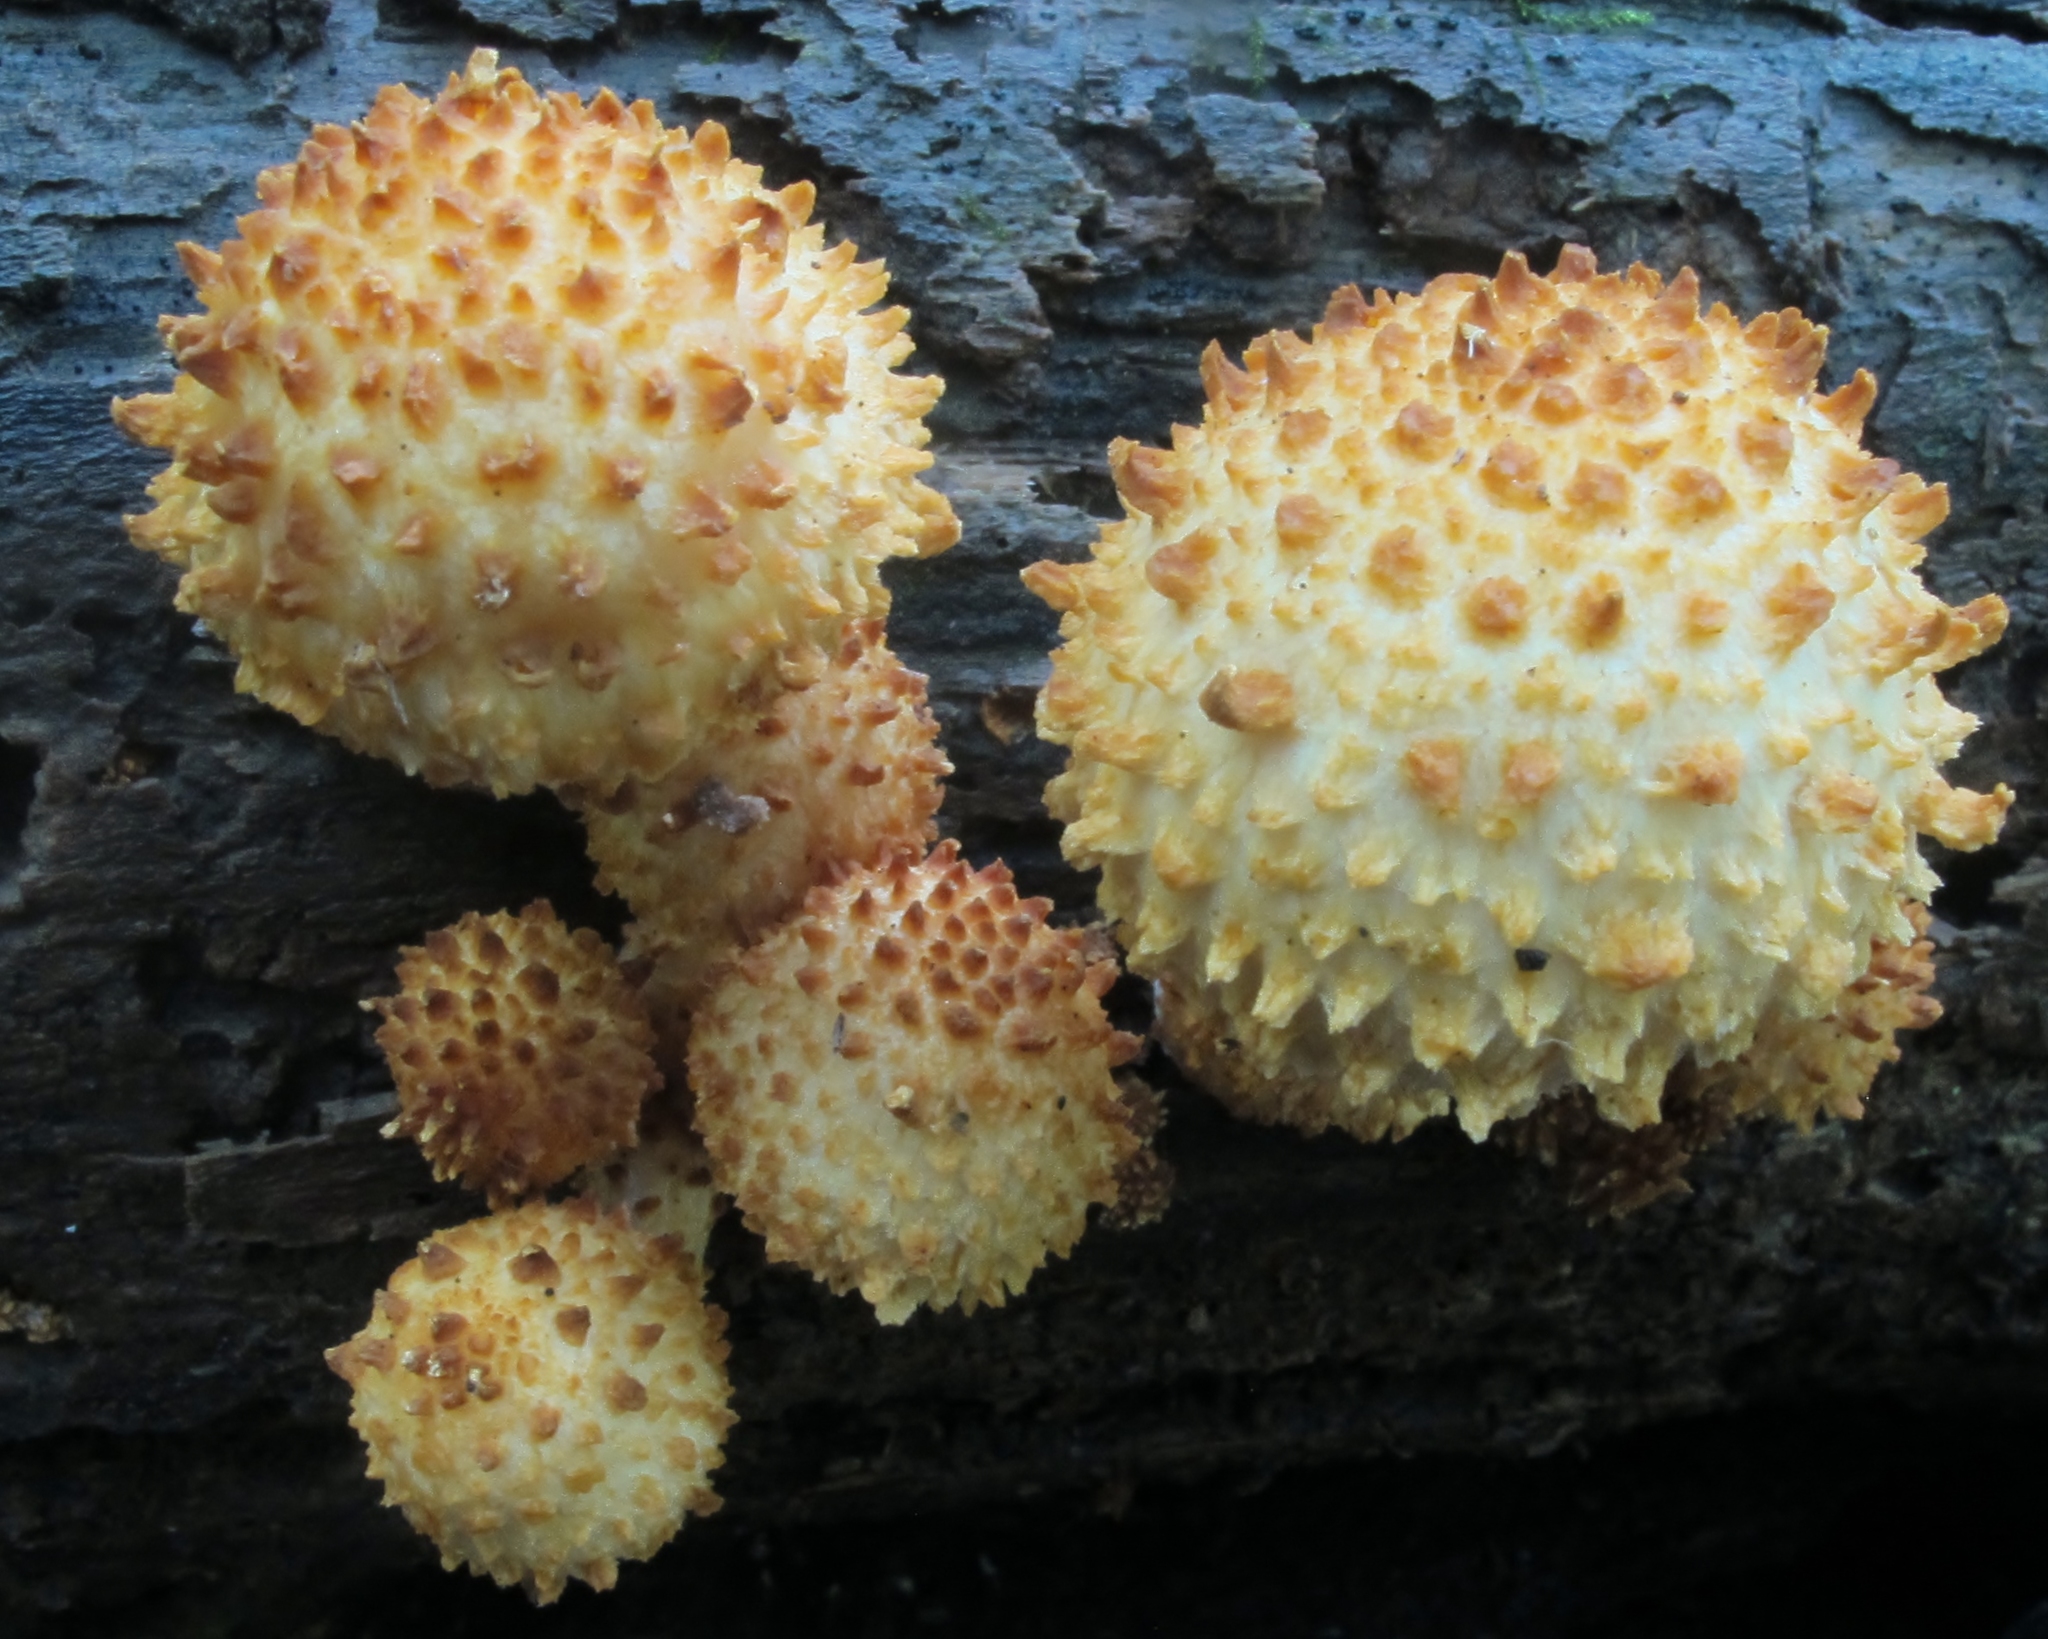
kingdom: Fungi
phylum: Basidiomycota
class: Agaricomycetes
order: Agaricales
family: Strophariaceae
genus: Pholiota
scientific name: Pholiota squarrosoides
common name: Sharp-scaly pholiota
